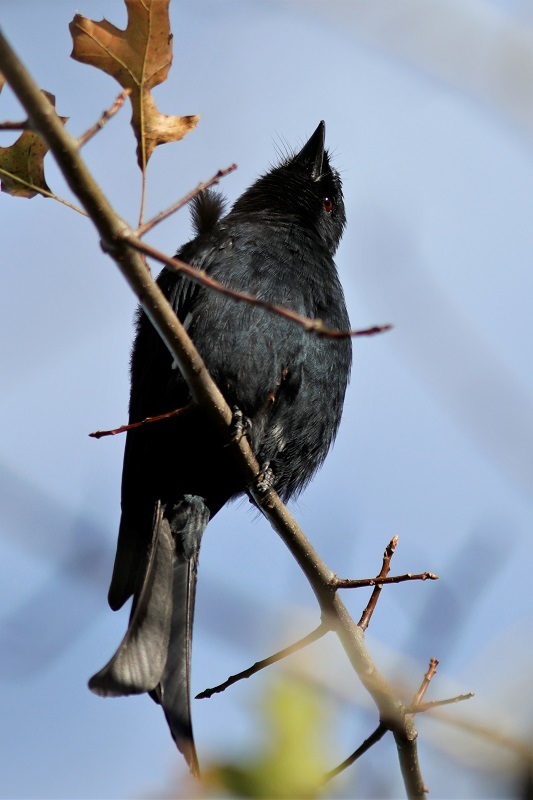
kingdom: Animalia
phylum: Chordata
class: Aves
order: Passeriformes
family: Dicruridae
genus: Dicrurus
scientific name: Dicrurus adsimilis
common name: Fork-tailed drongo
